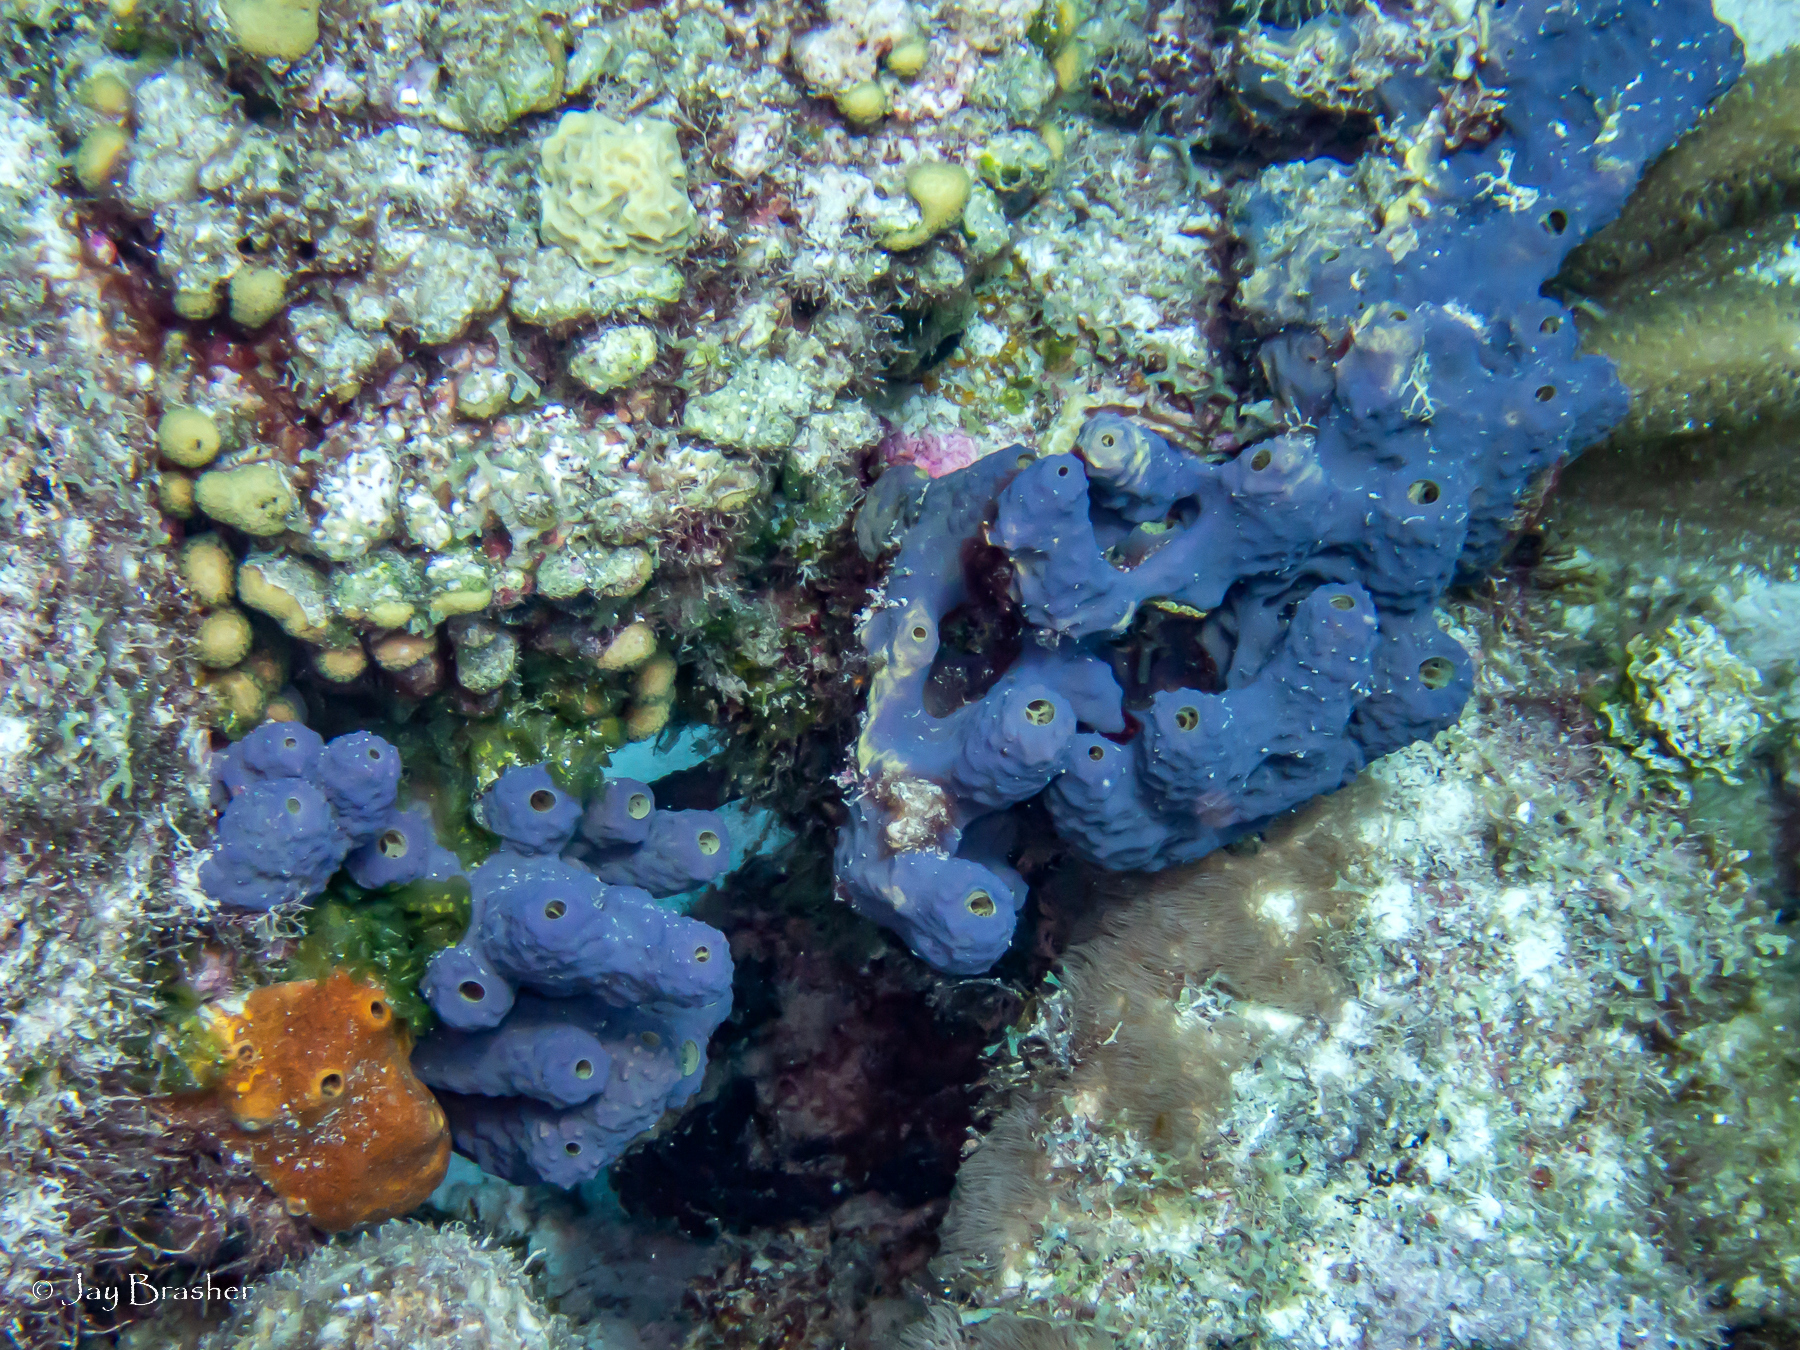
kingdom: Animalia
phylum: Porifera
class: Demospongiae
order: Axinellida
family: Raspailiidae
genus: Ectyoplasia
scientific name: Ectyoplasia ferox
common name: Brown encrusting octopus sponge
